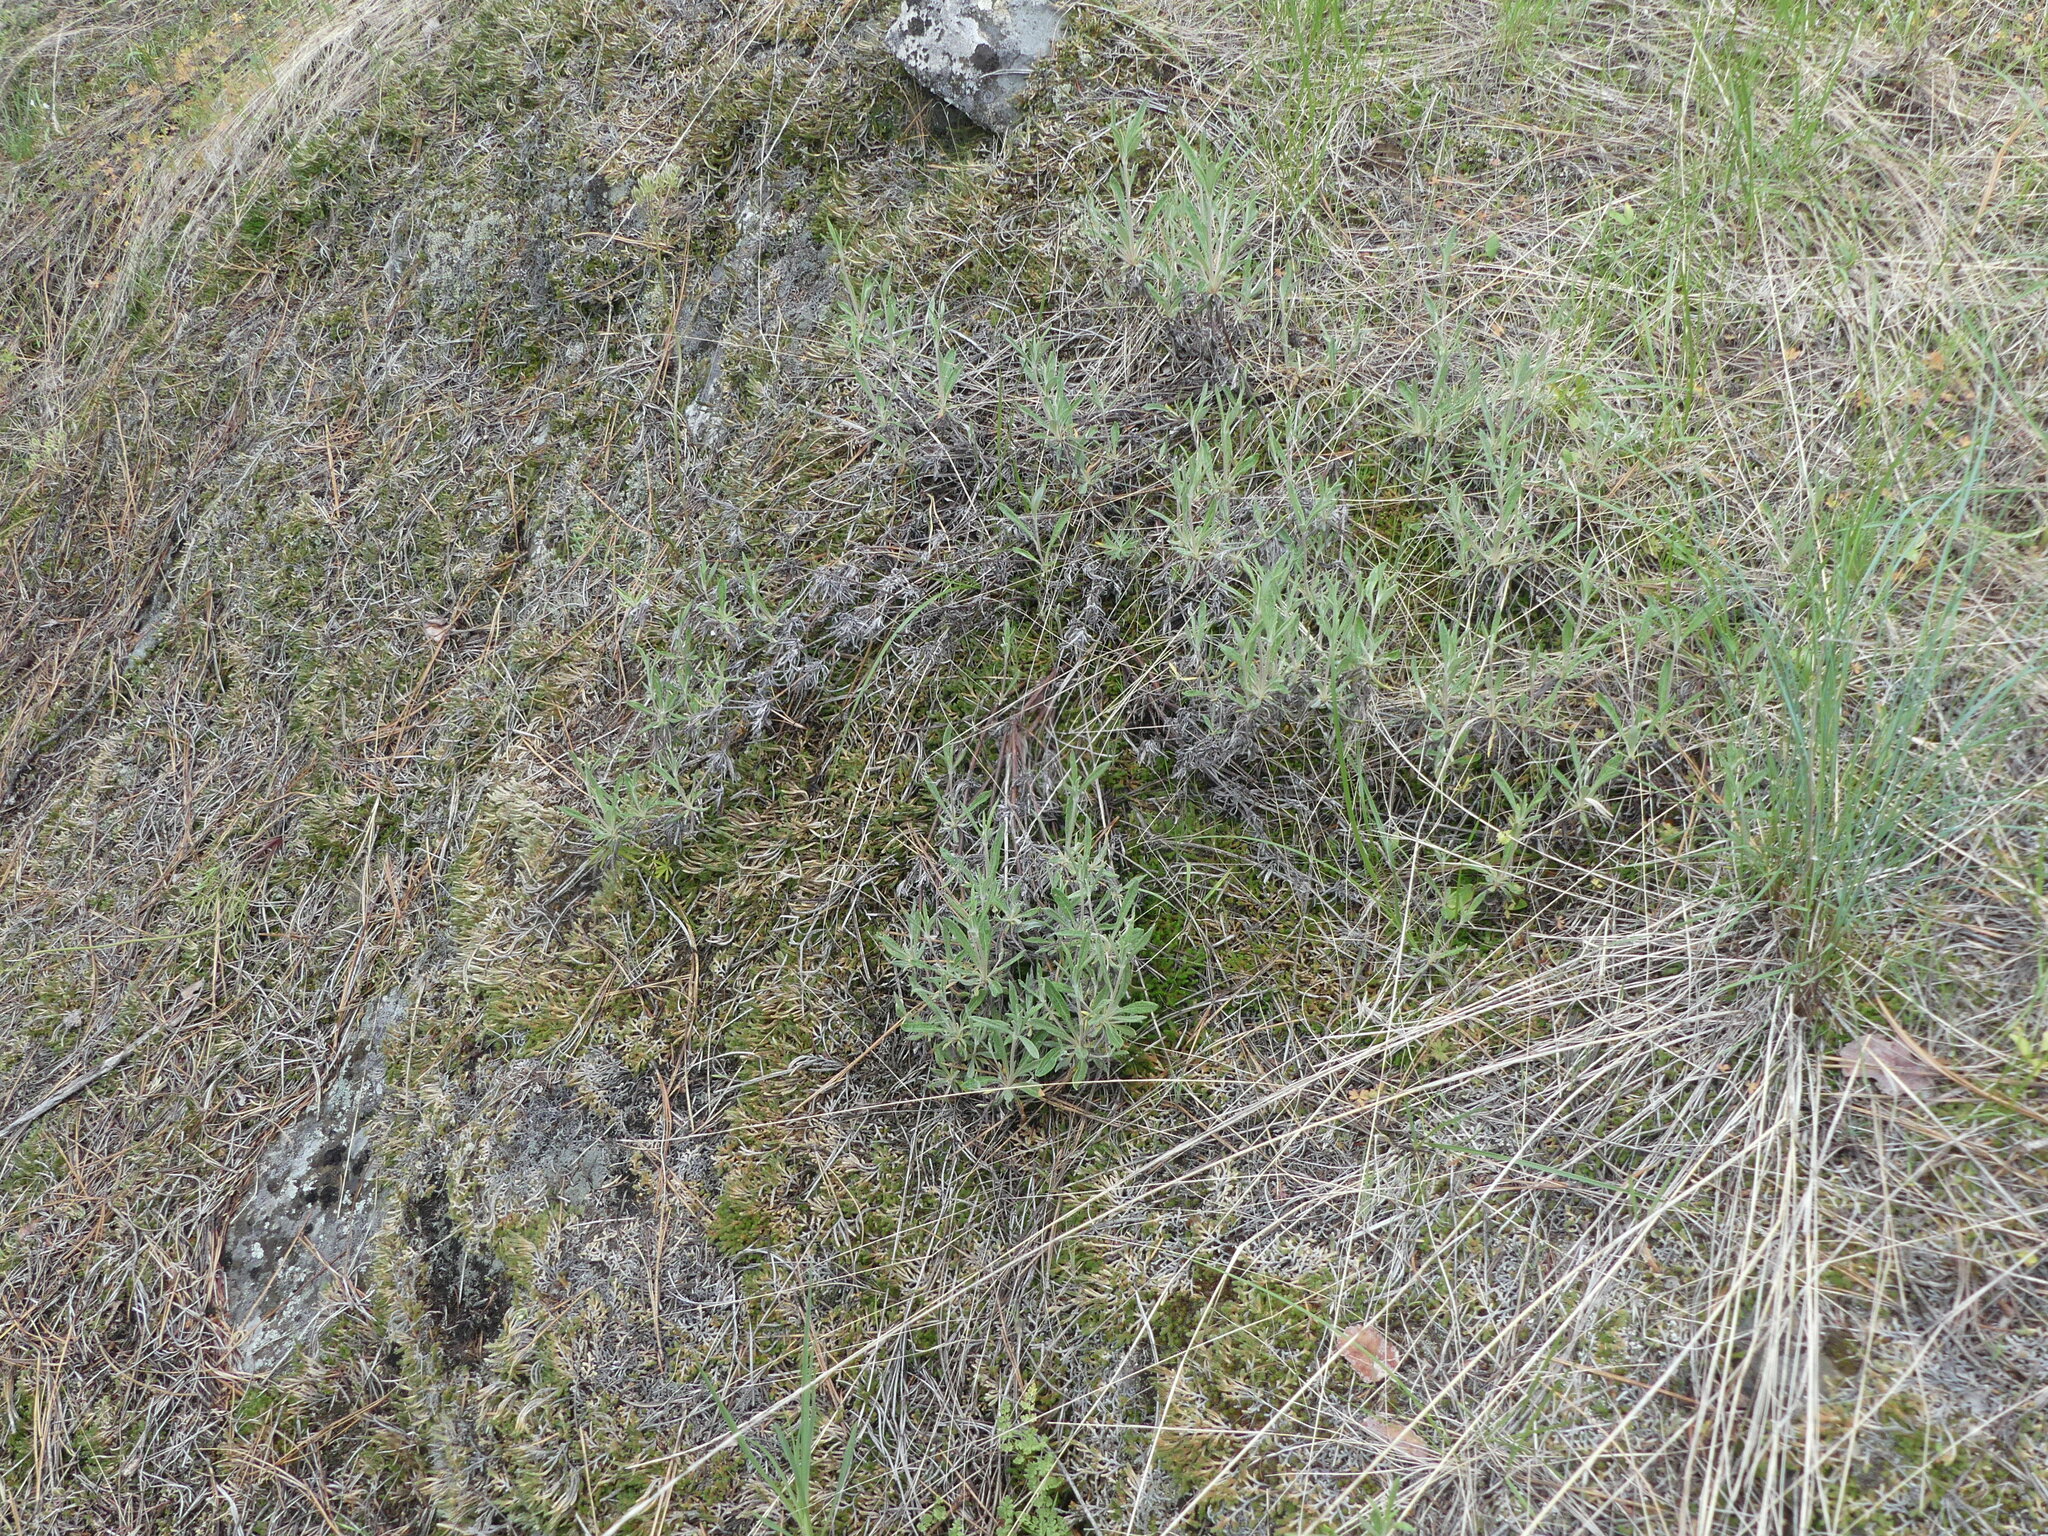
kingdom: Plantae
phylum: Tracheophyta
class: Magnoliopsida
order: Caryophyllales
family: Polygonaceae
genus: Eriogonum
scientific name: Eriogonum heracleoides
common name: Wyeth's buckwheat
